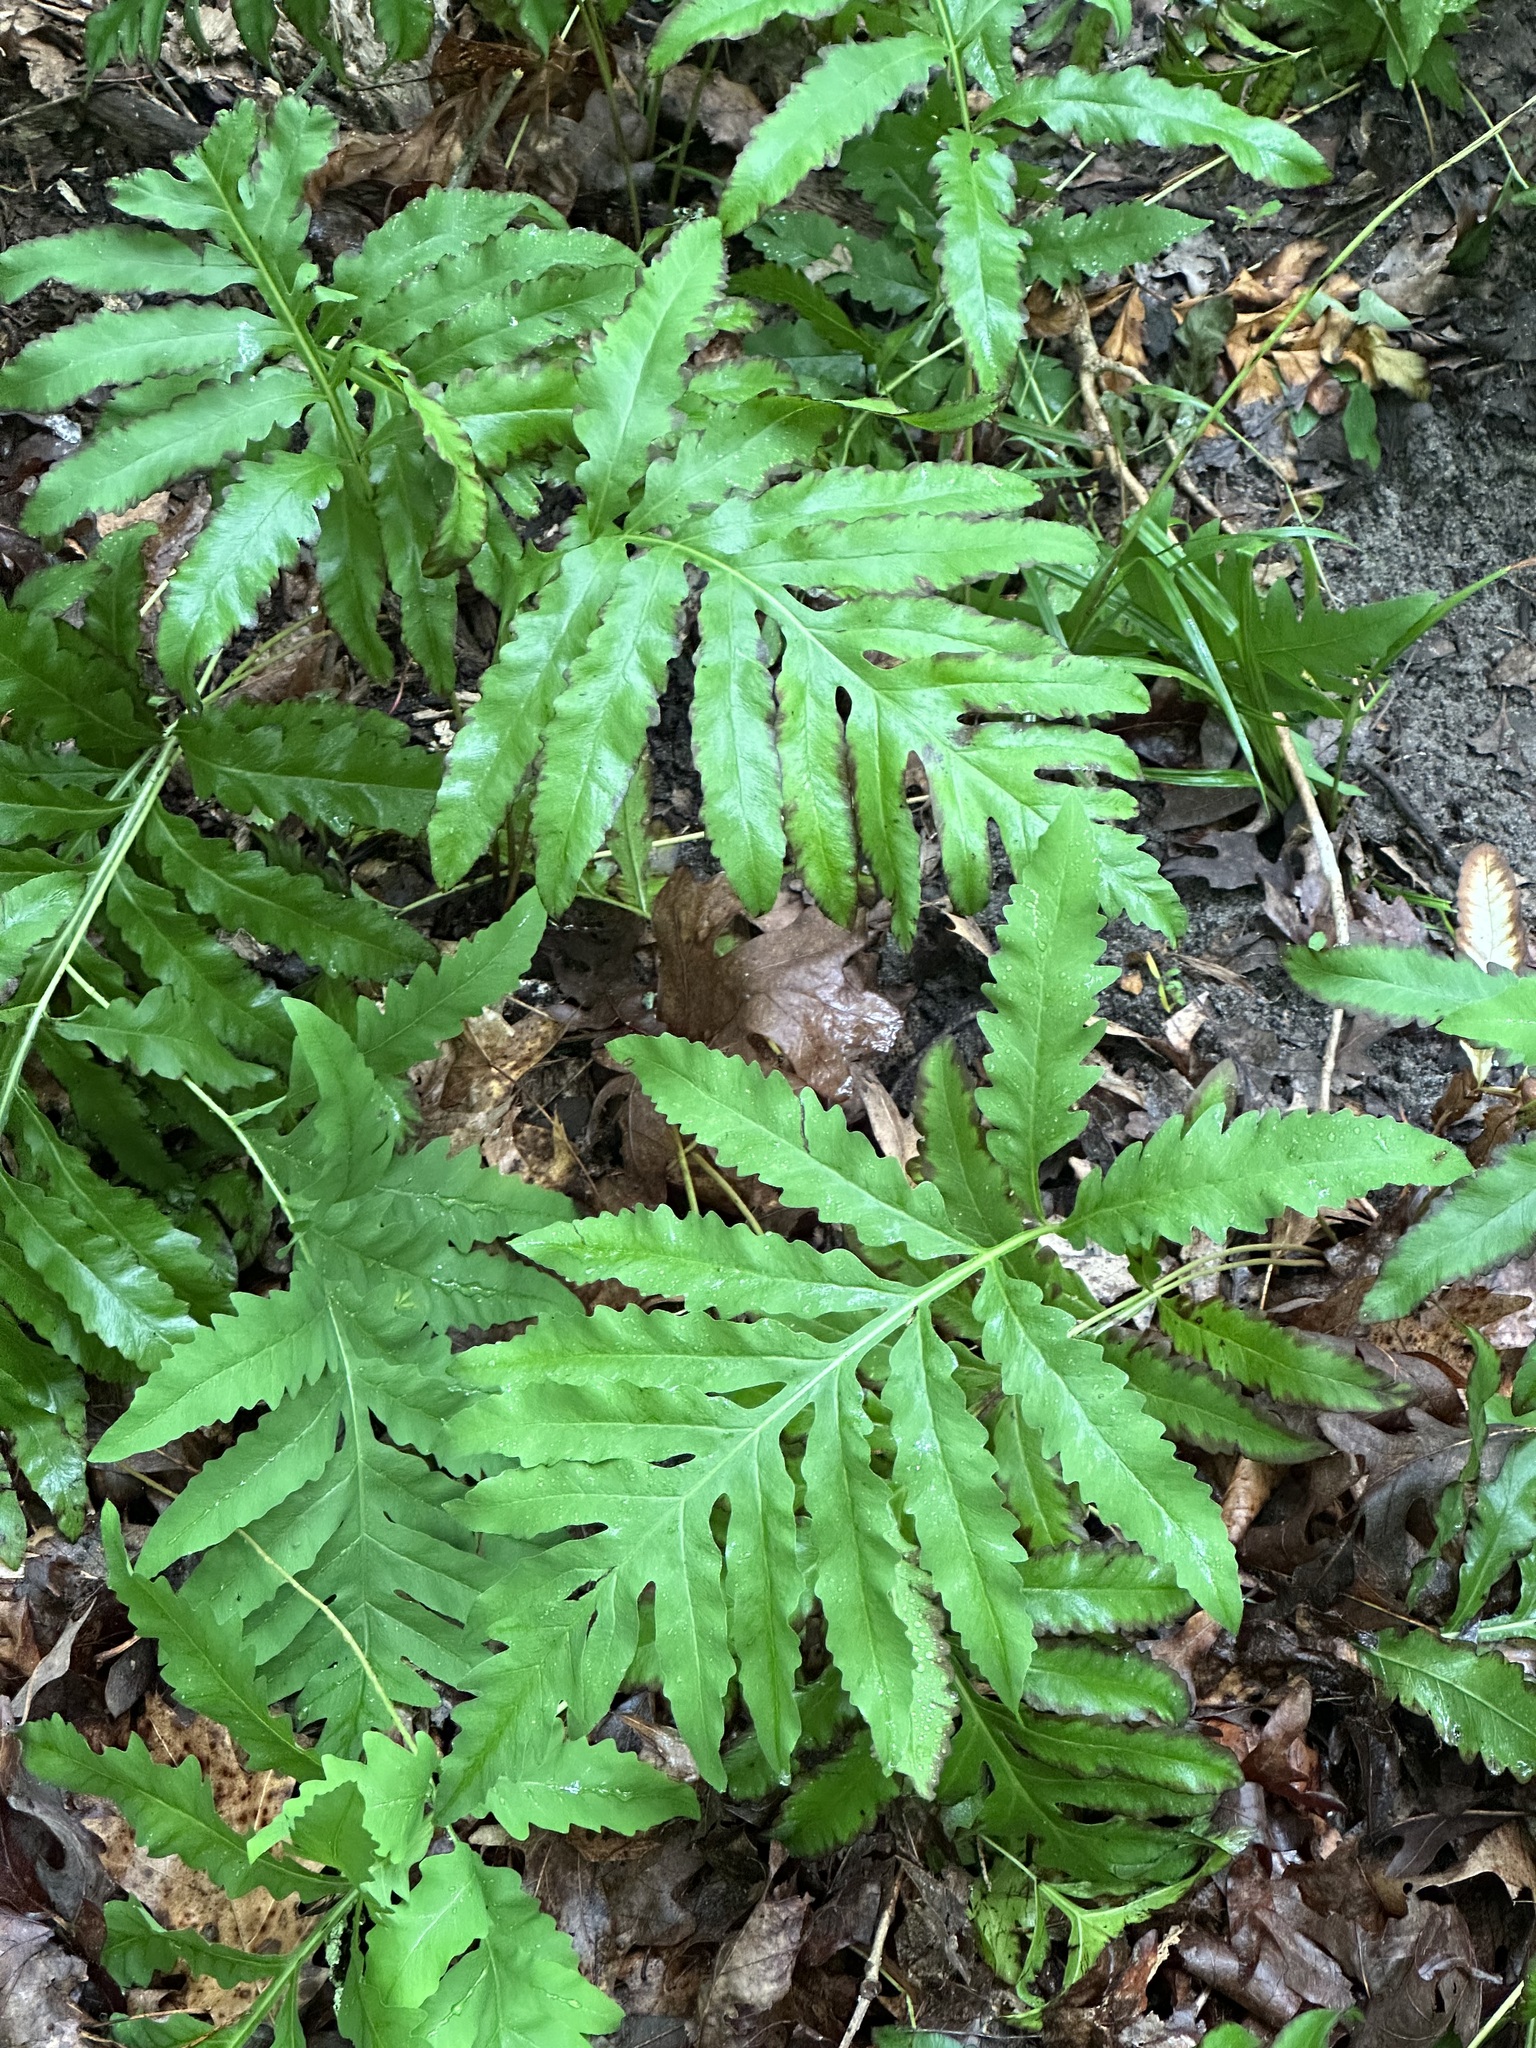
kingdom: Plantae
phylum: Tracheophyta
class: Polypodiopsida
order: Polypodiales
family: Onocleaceae
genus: Onoclea
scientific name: Onoclea sensibilis
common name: Sensitive fern
